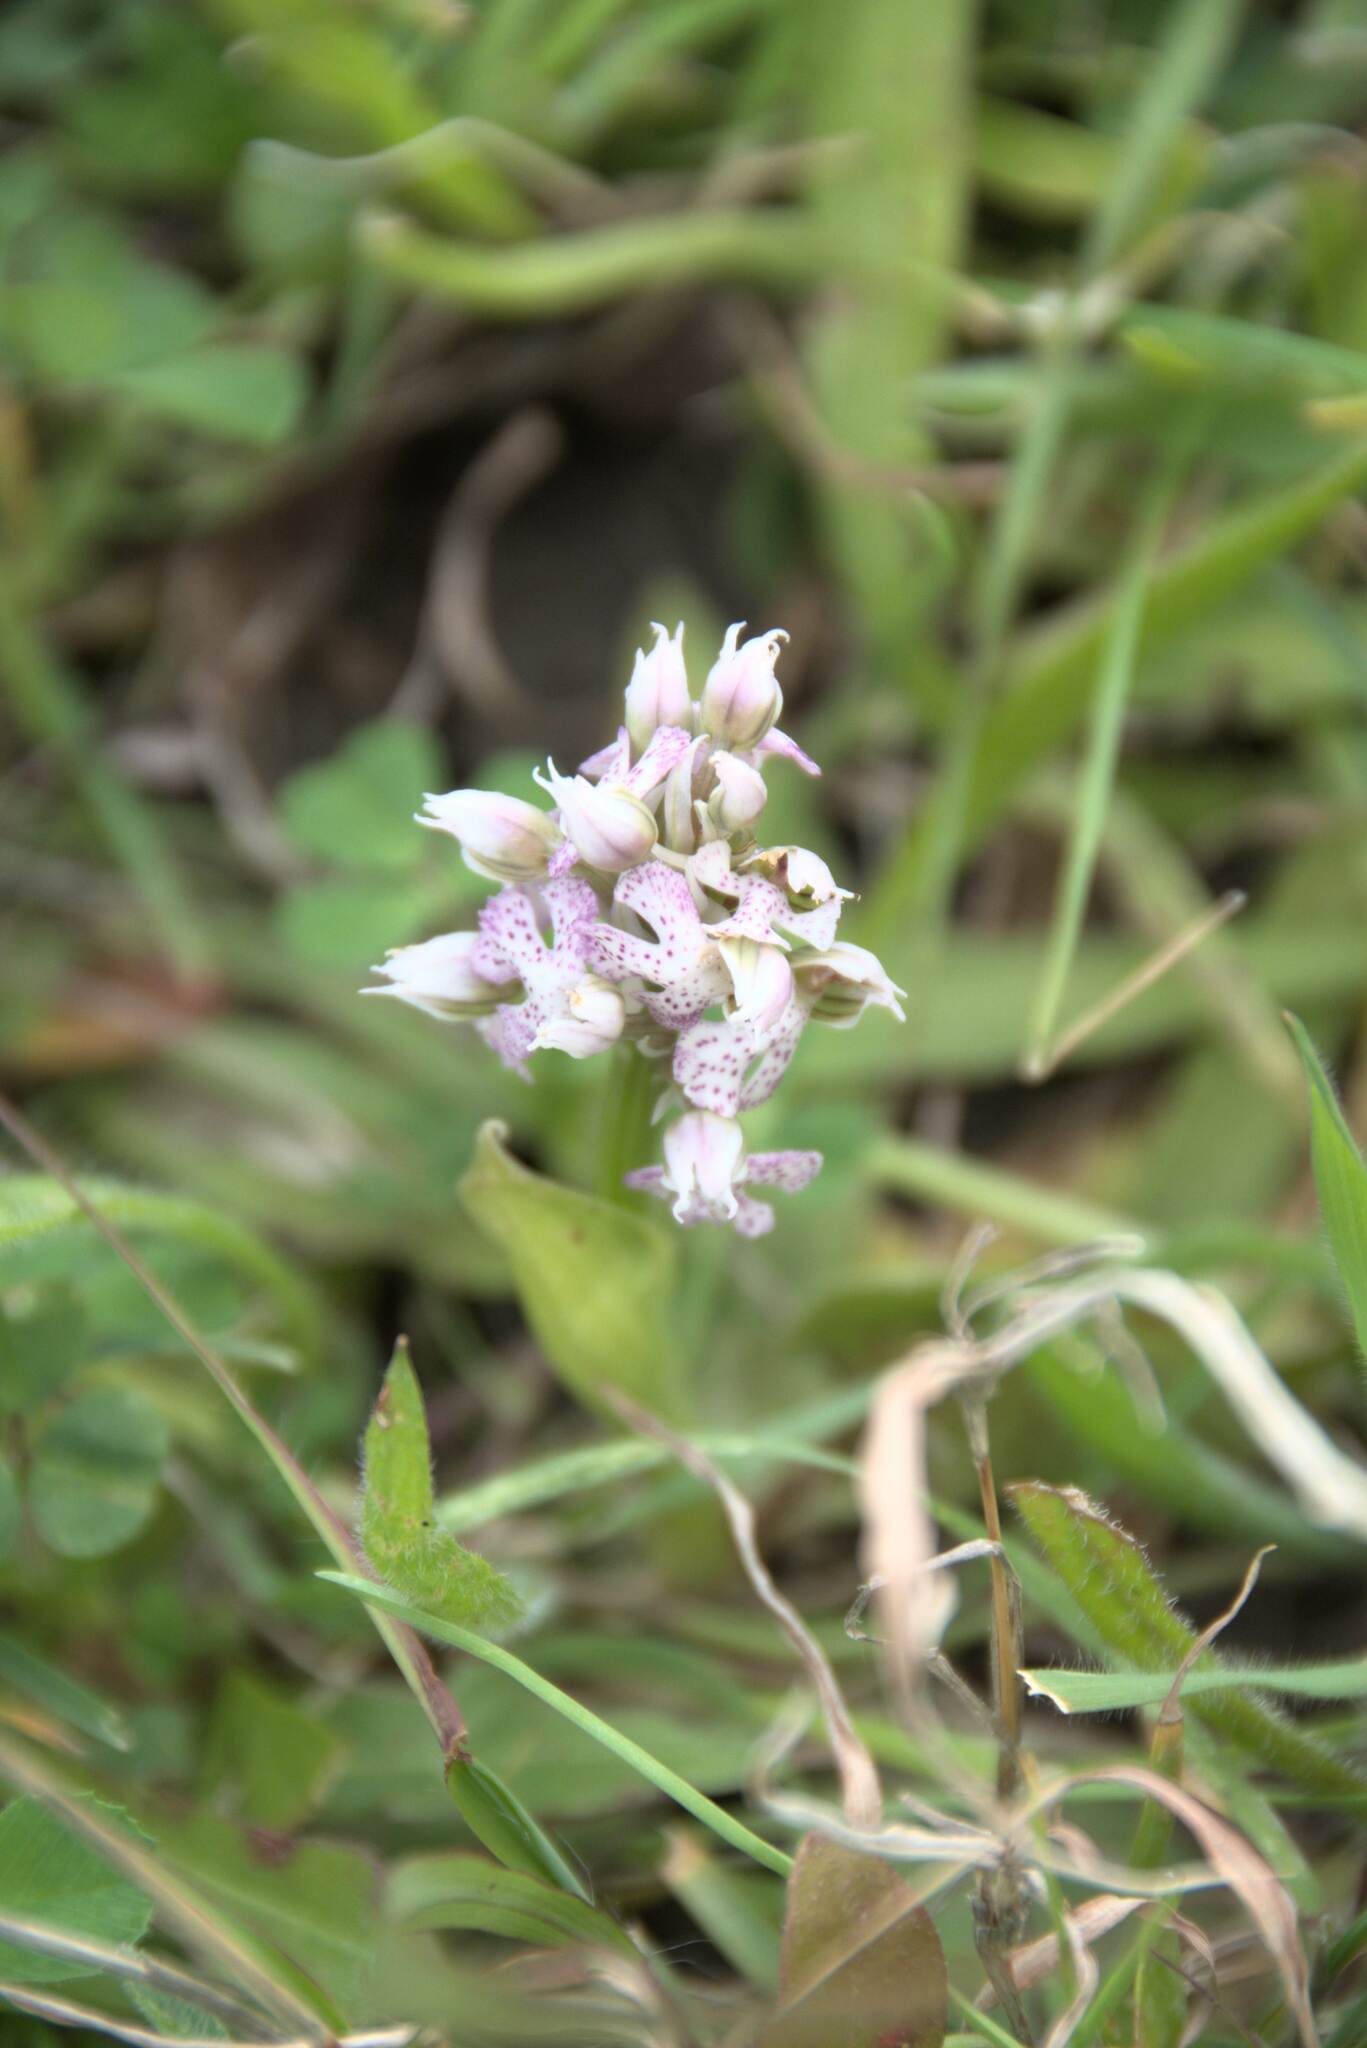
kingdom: Plantae
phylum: Tracheophyta
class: Liliopsida
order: Asparagales
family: Orchidaceae
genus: Neotinea
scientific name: Neotinea lactea
